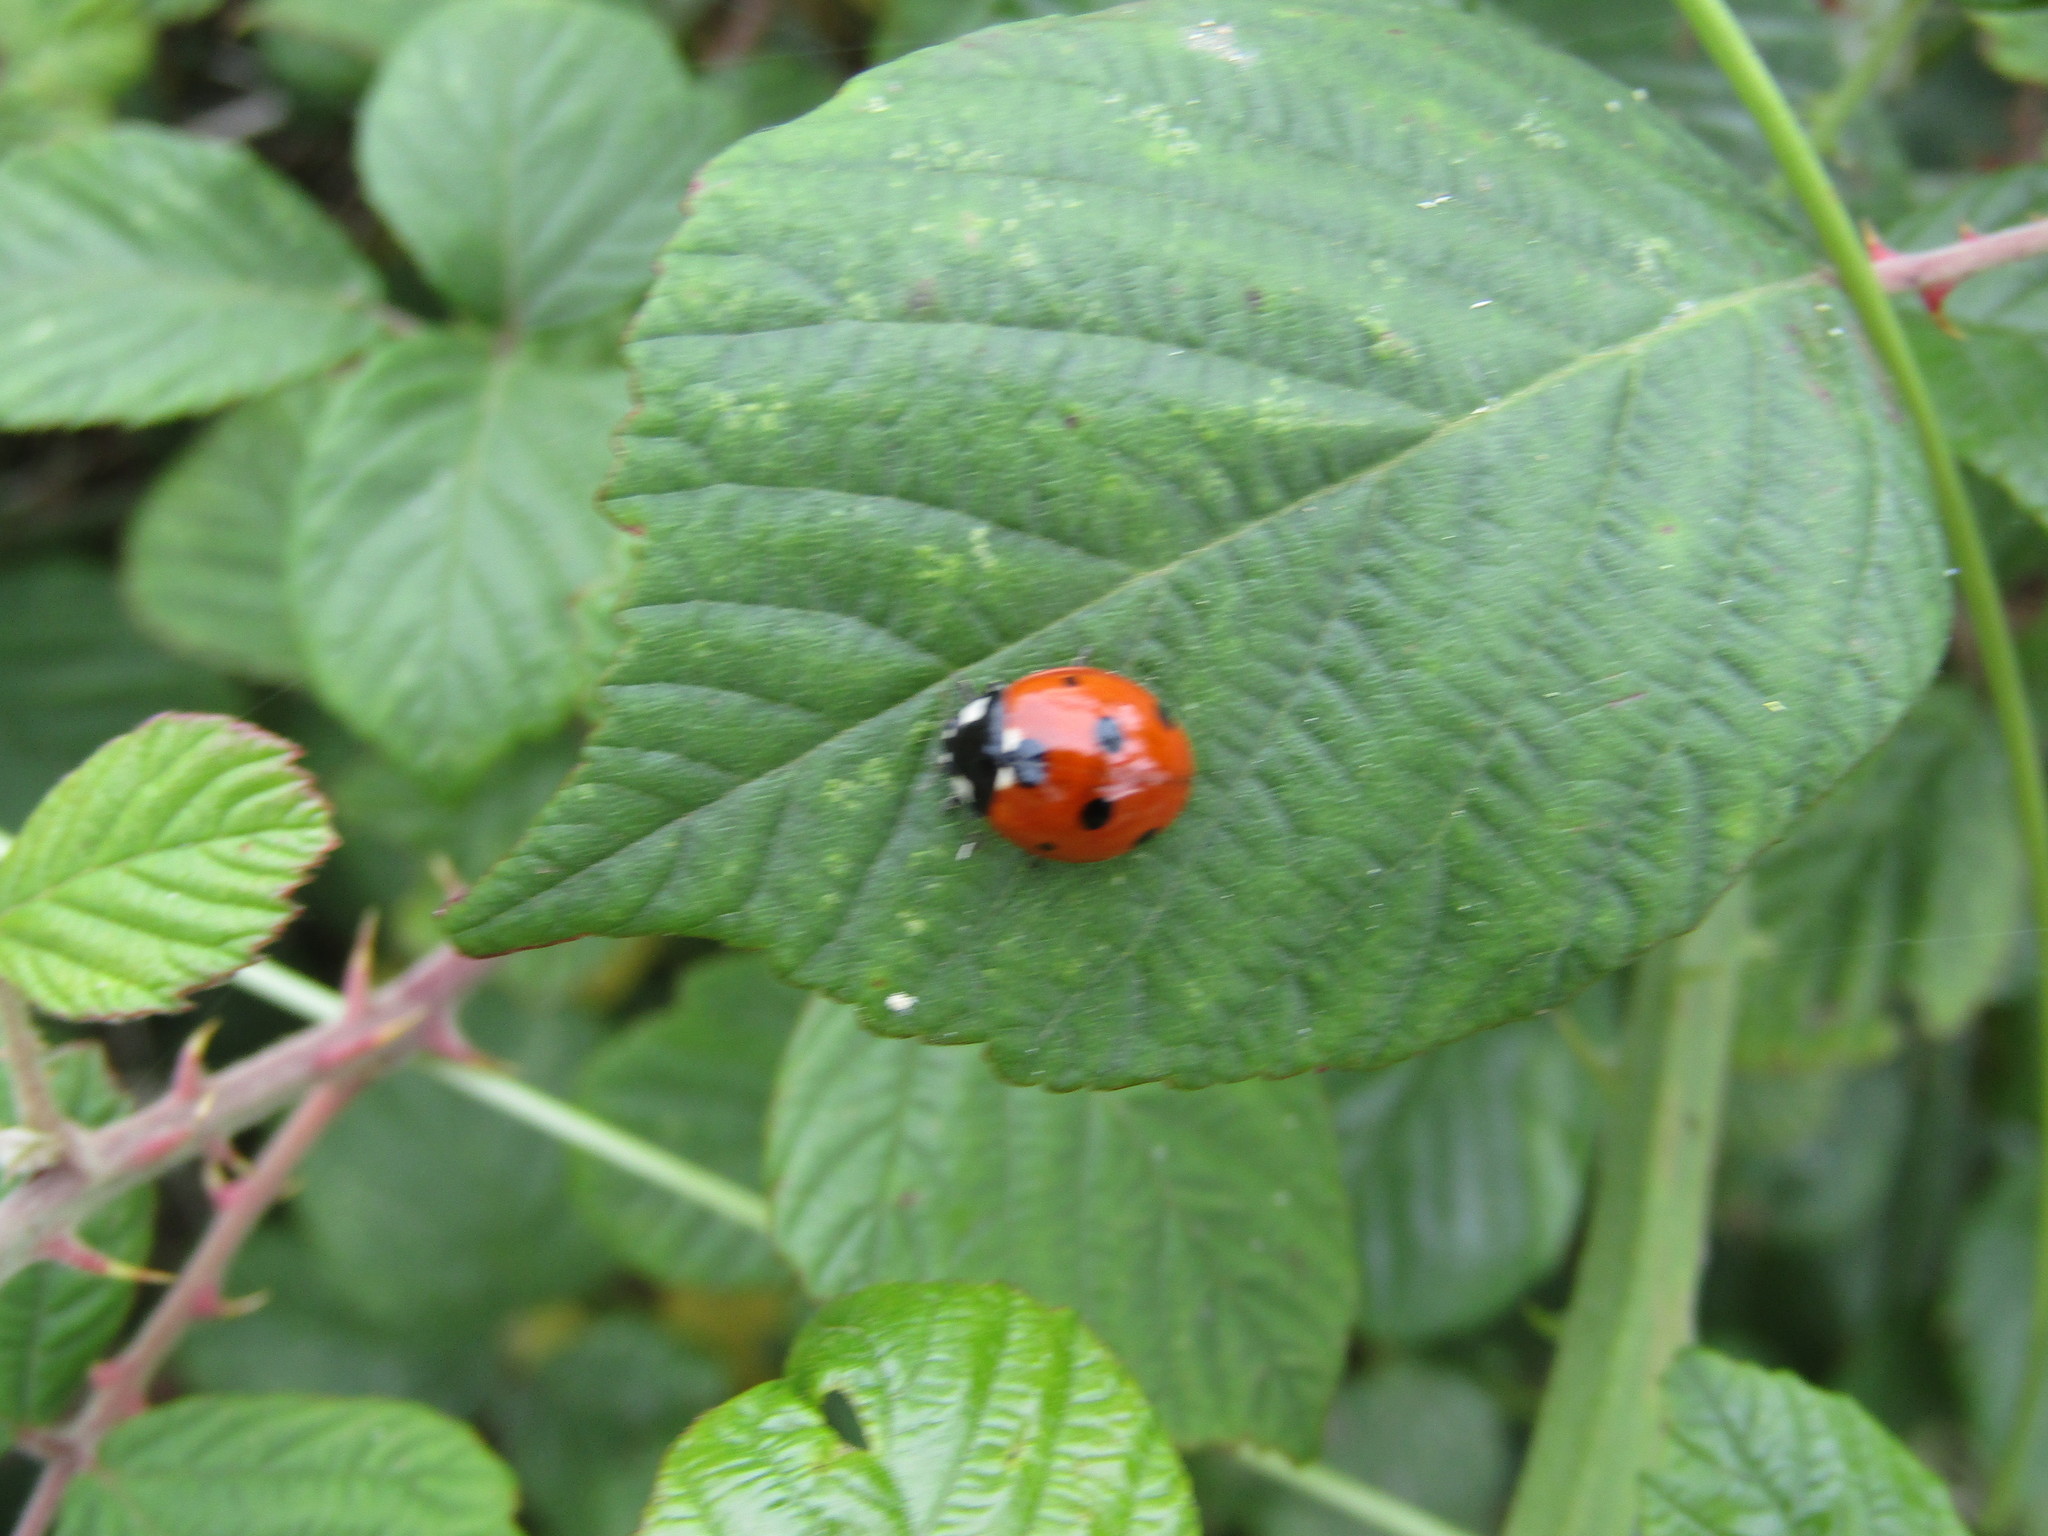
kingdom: Animalia
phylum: Arthropoda
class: Insecta
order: Coleoptera
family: Coccinellidae
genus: Coccinella
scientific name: Coccinella septempunctata
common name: Sevenspotted lady beetle
